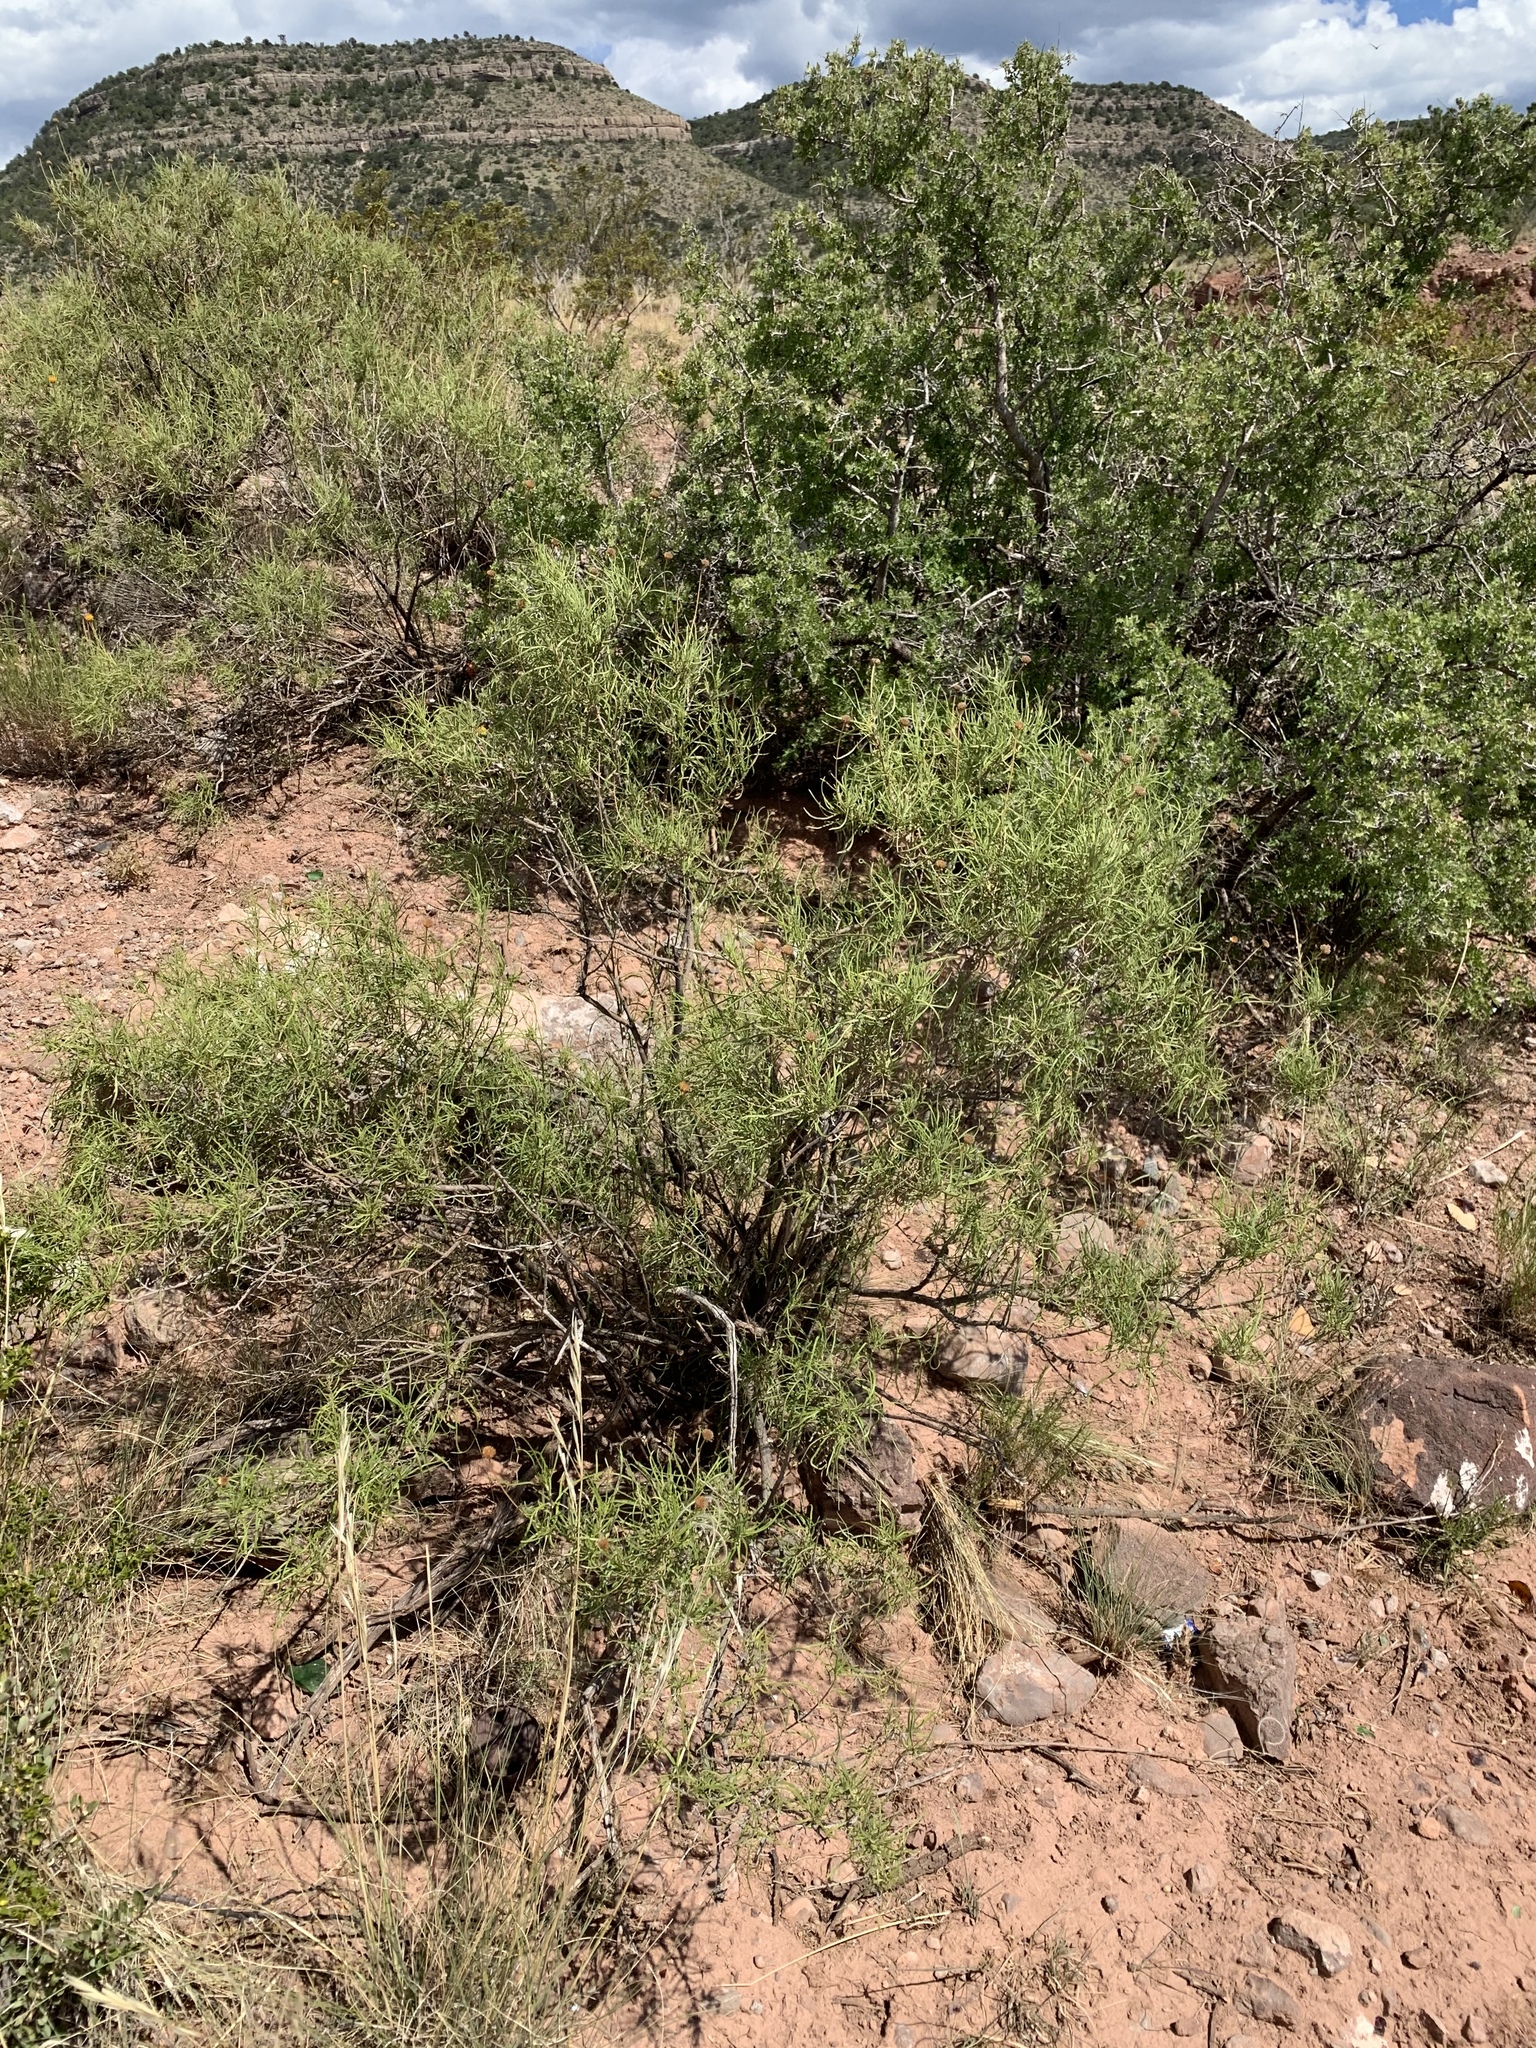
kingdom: Plantae
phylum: Tracheophyta
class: Magnoliopsida
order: Asterales
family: Asteraceae
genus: Sidneya
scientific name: Sidneya tenuifolia
